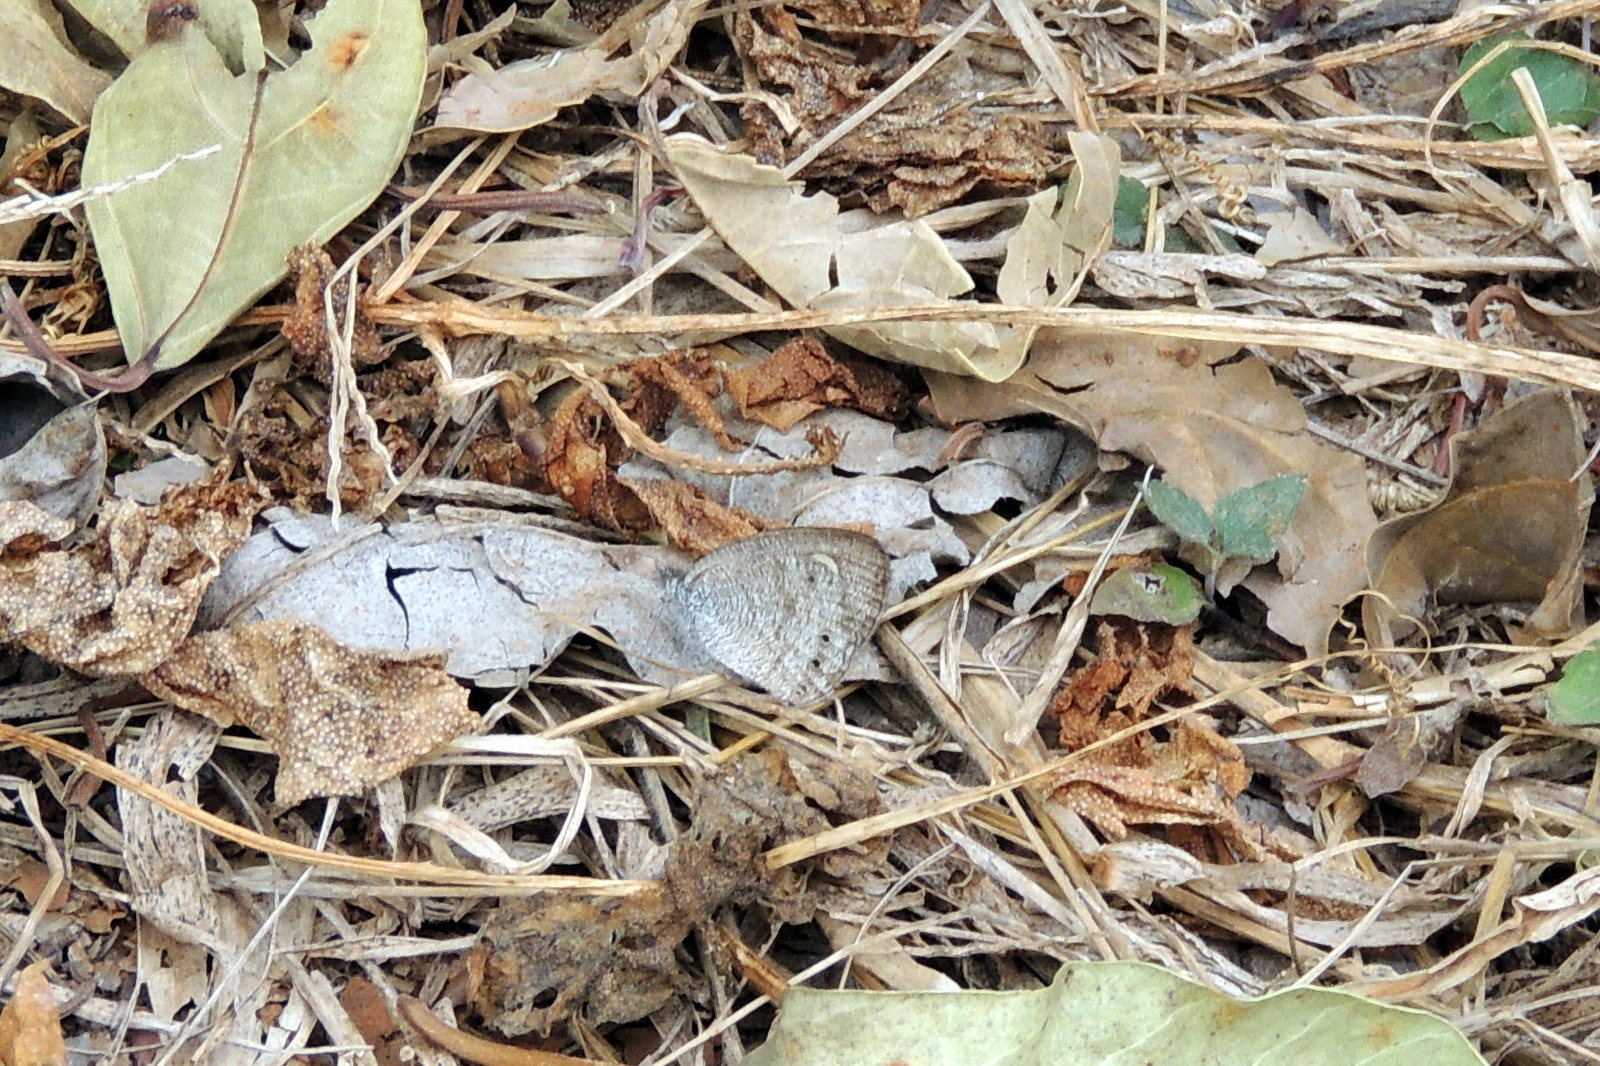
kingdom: Animalia
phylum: Arthropoda
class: Insecta
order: Lepidoptera
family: Nymphalidae
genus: Ypthima
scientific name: Ypthima huebneri
